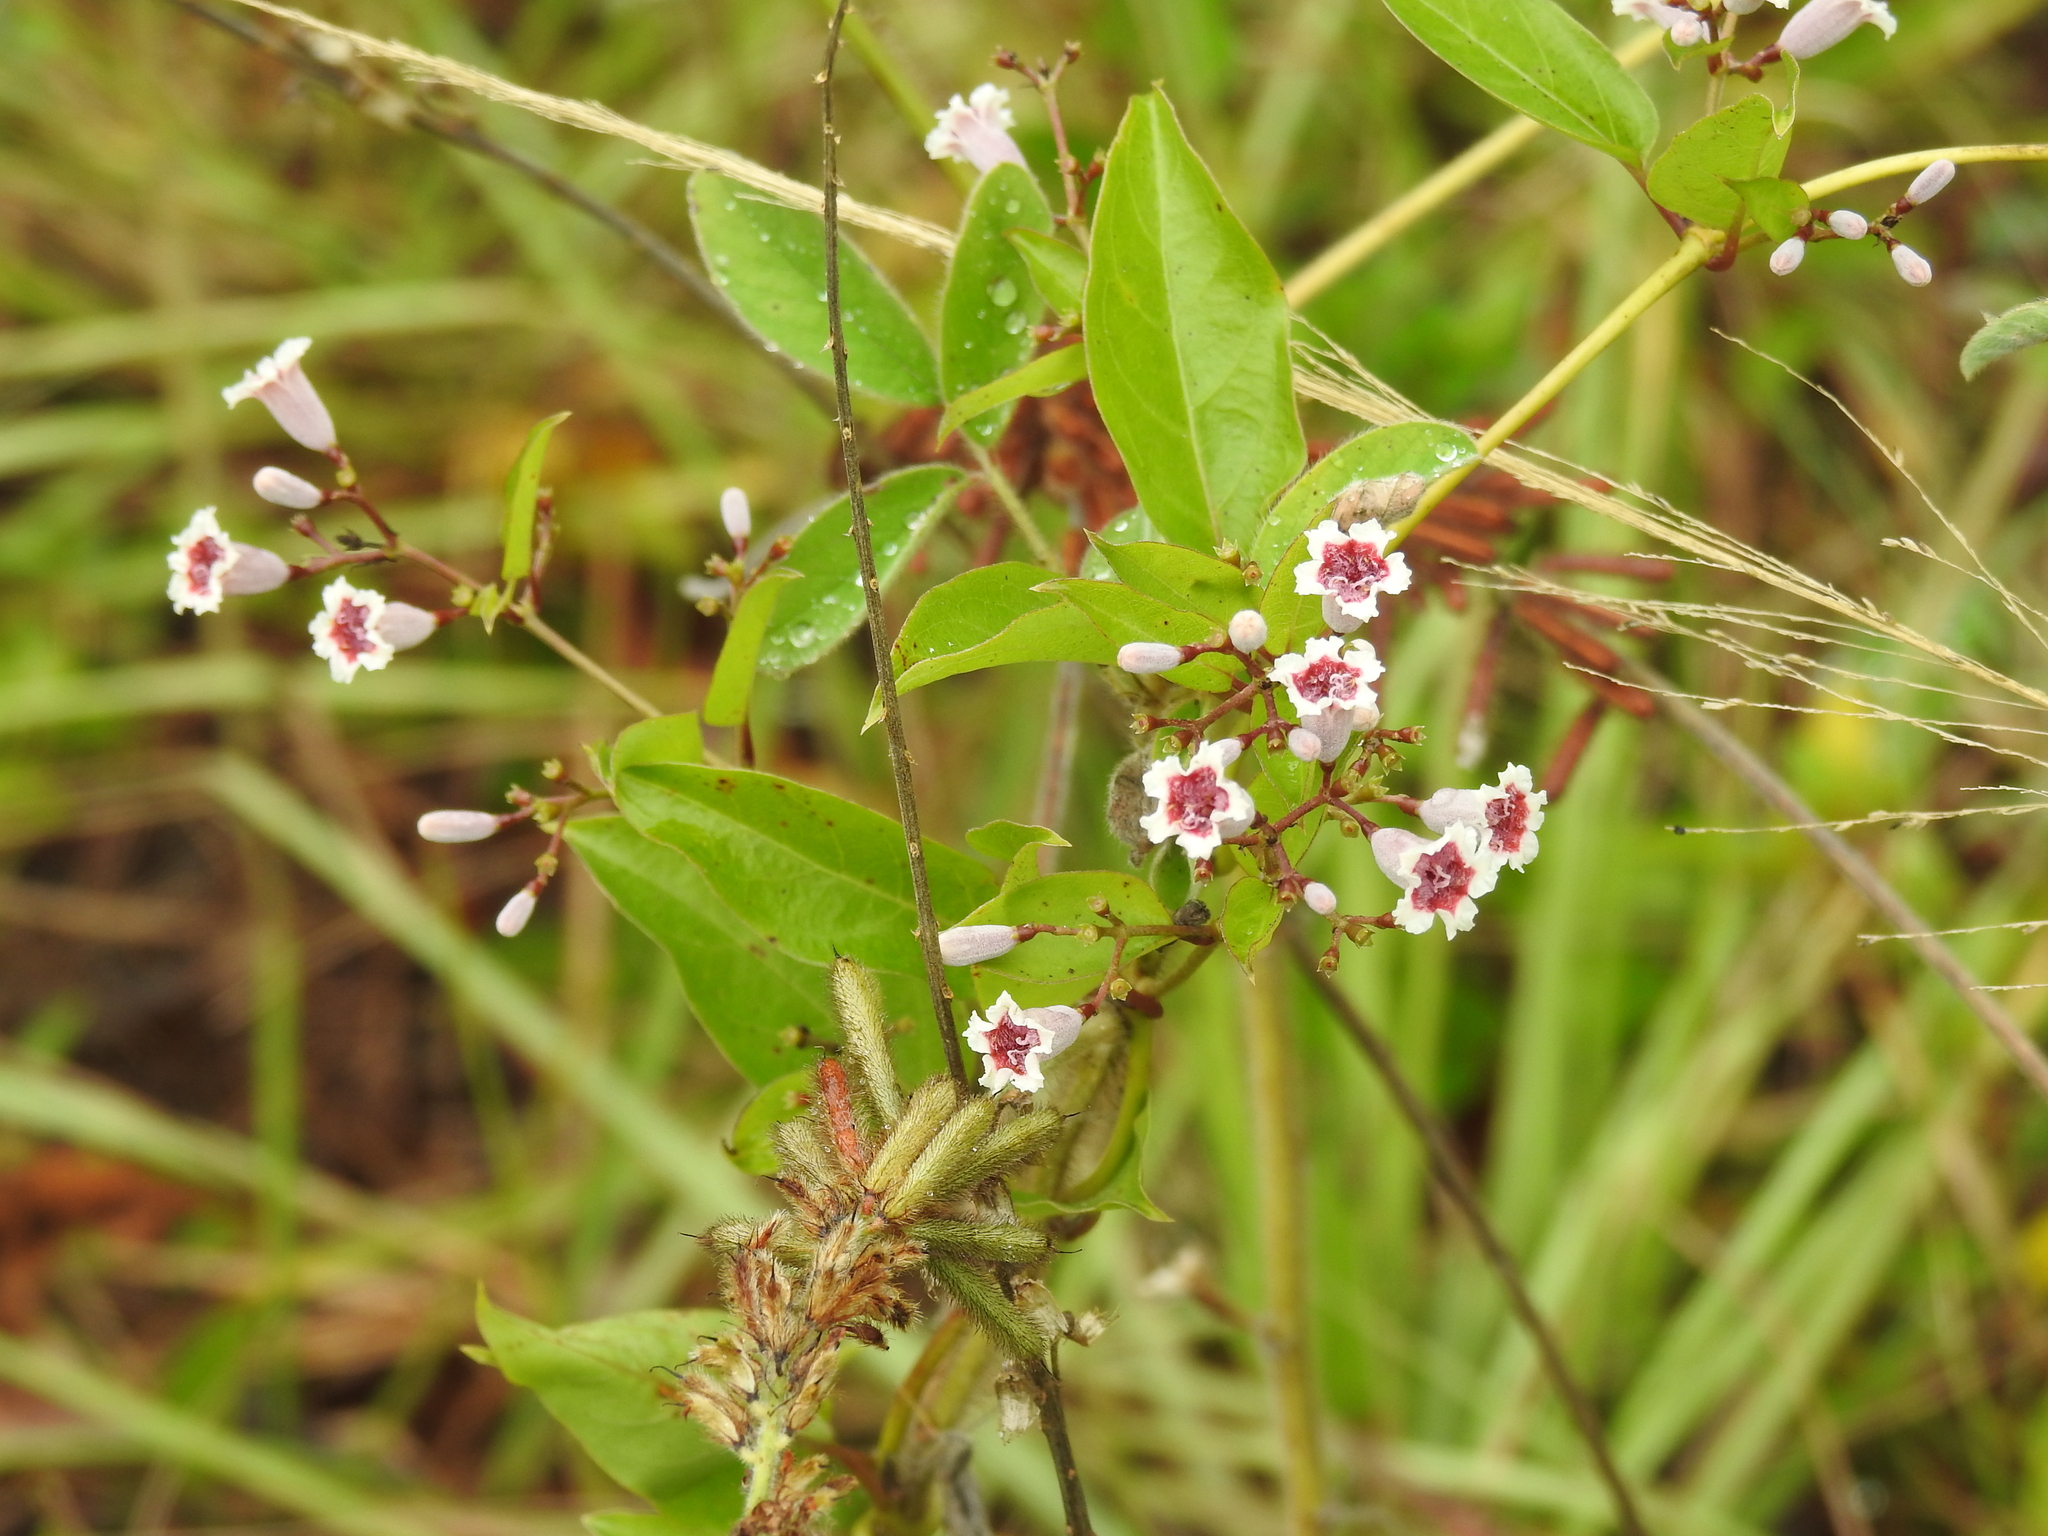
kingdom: Plantae
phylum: Tracheophyta
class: Magnoliopsida
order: Gentianales
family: Rubiaceae
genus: Paederia
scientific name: Paederia foetida
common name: Stinkvine
